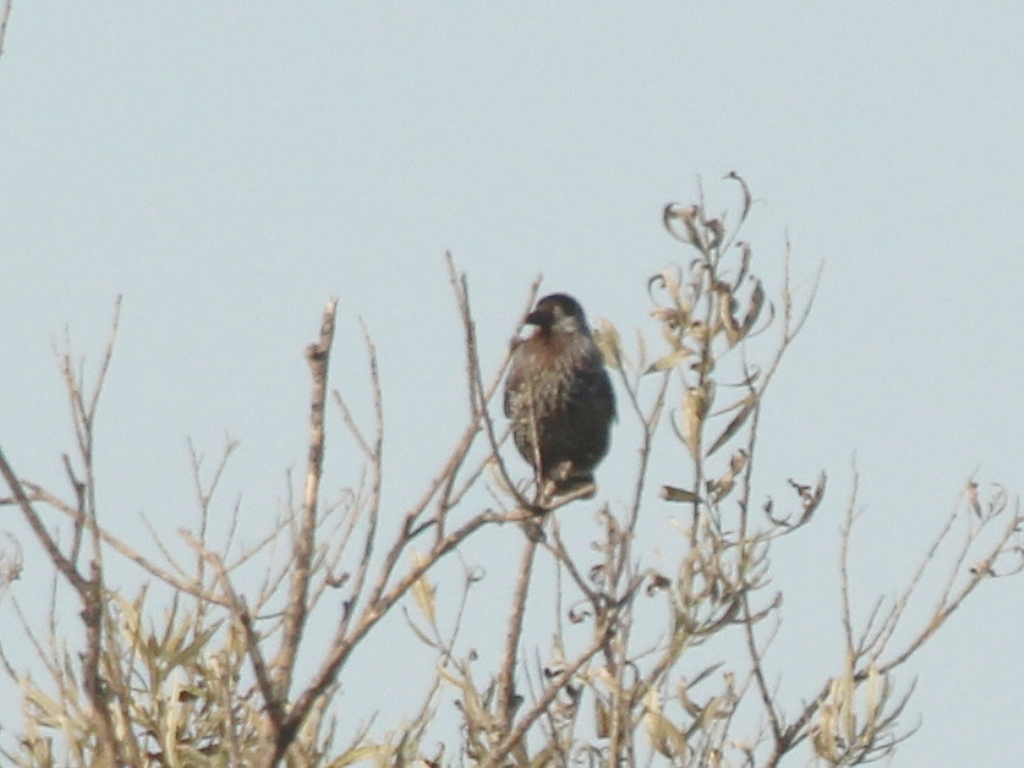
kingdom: Animalia
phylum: Chordata
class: Aves
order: Passeriformes
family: Corvidae
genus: Nucifraga
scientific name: Nucifraga caryocatactes
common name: Spotted nutcracker
